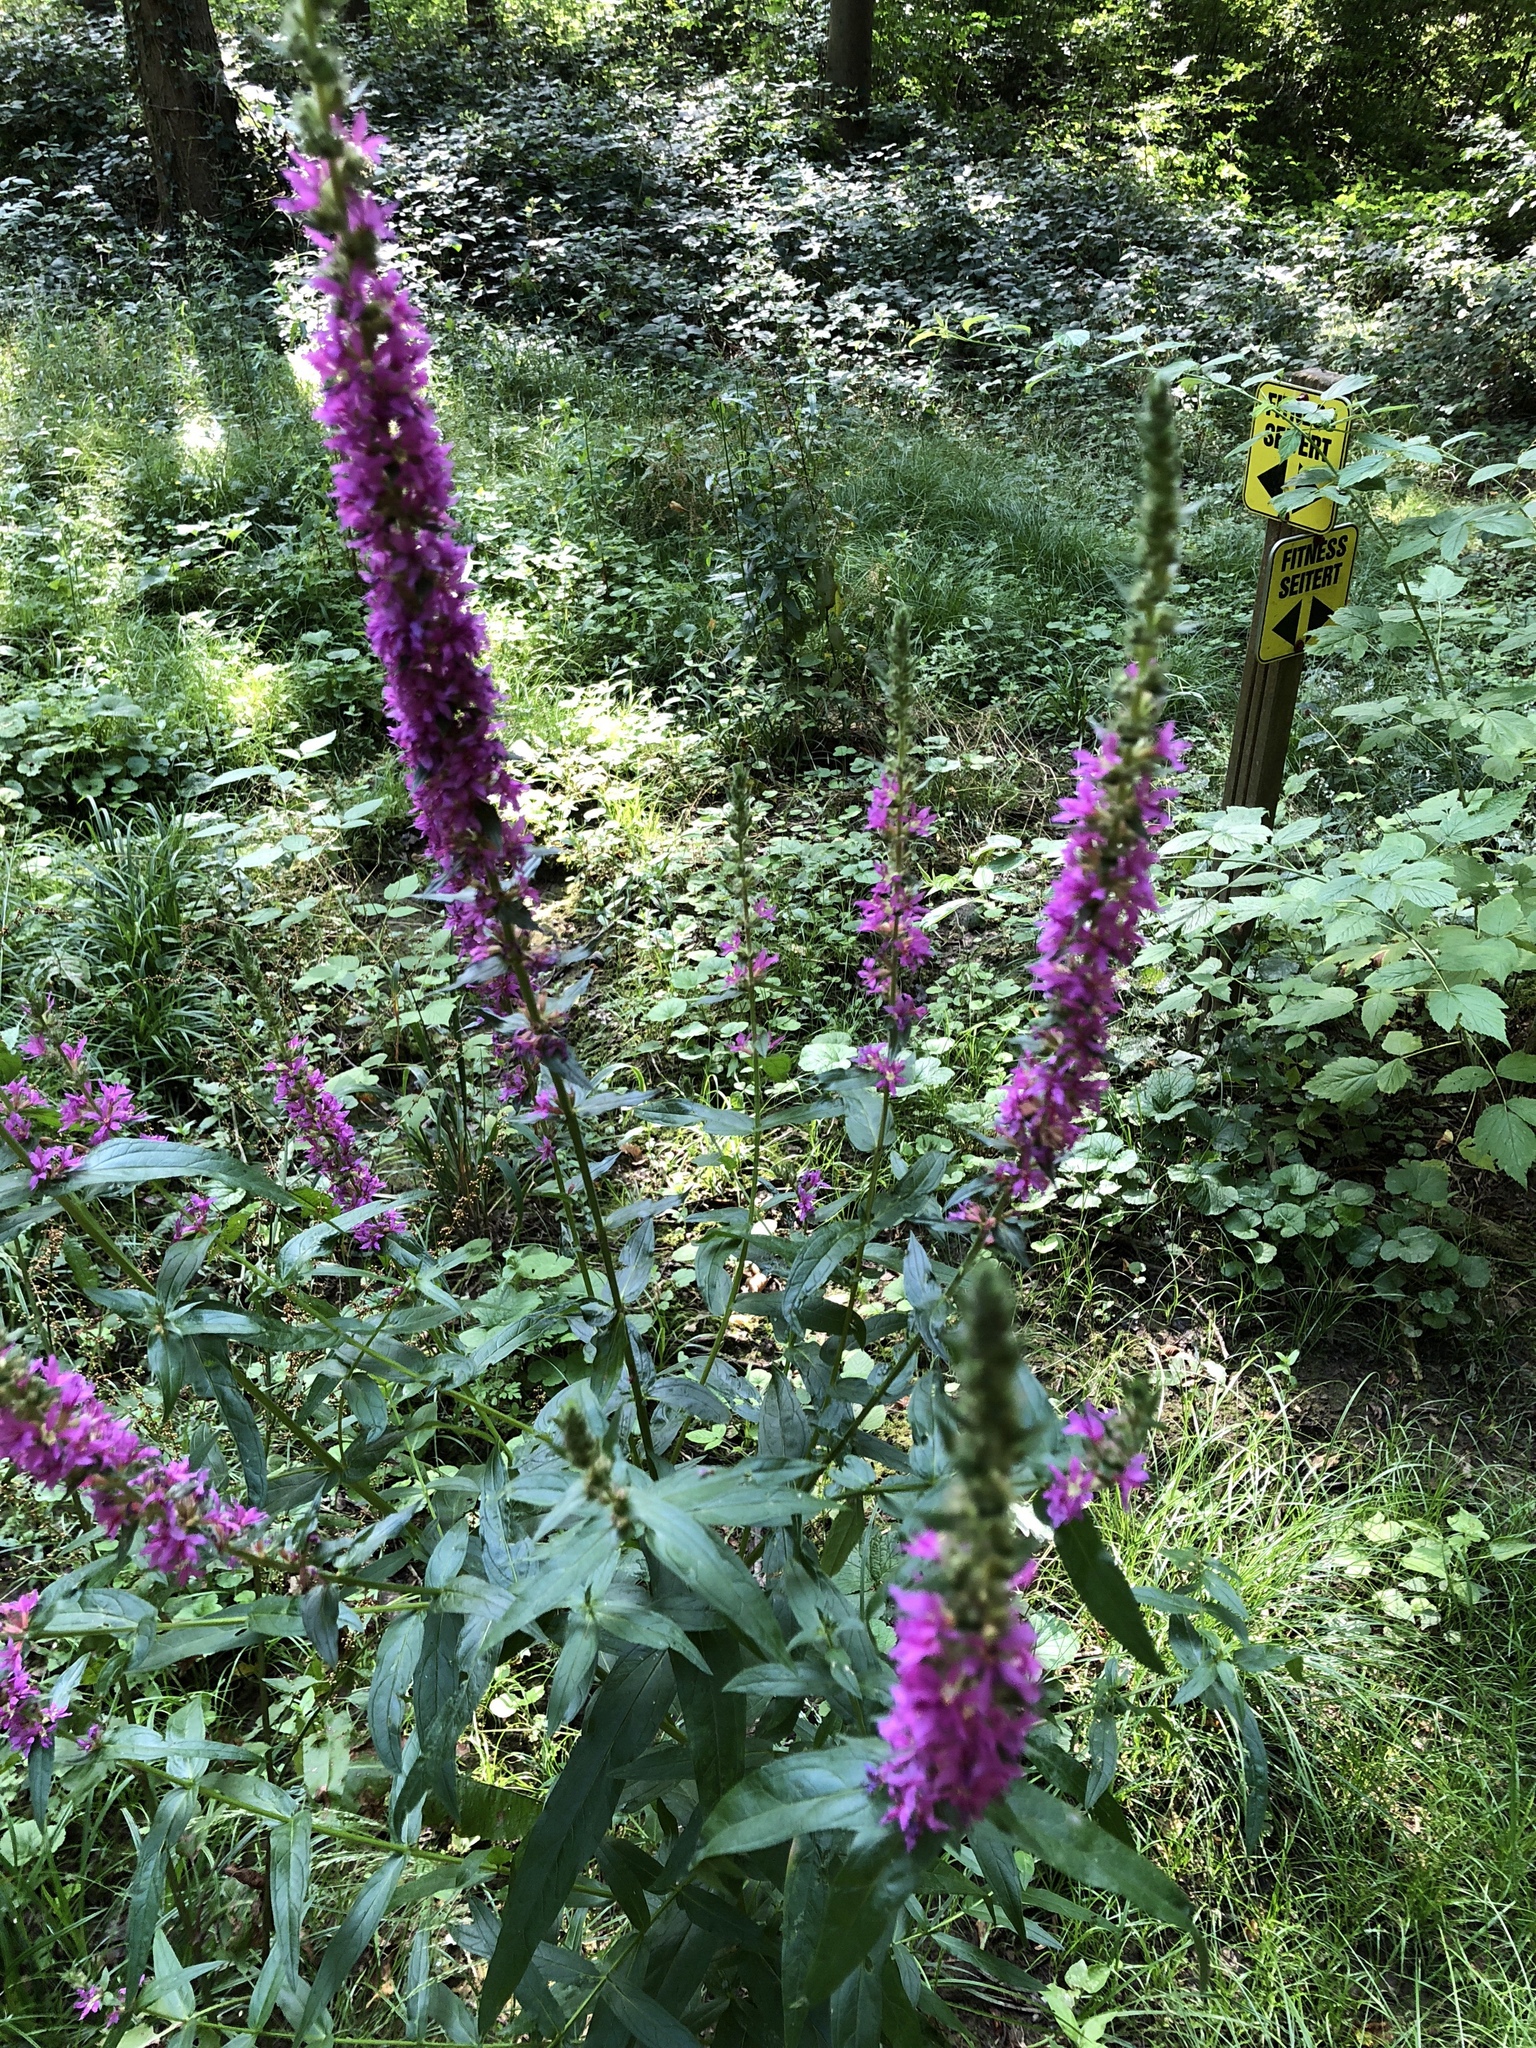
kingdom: Plantae
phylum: Tracheophyta
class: Magnoliopsida
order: Myrtales
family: Lythraceae
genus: Lythrum
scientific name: Lythrum salicaria
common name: Purple loosestrife
